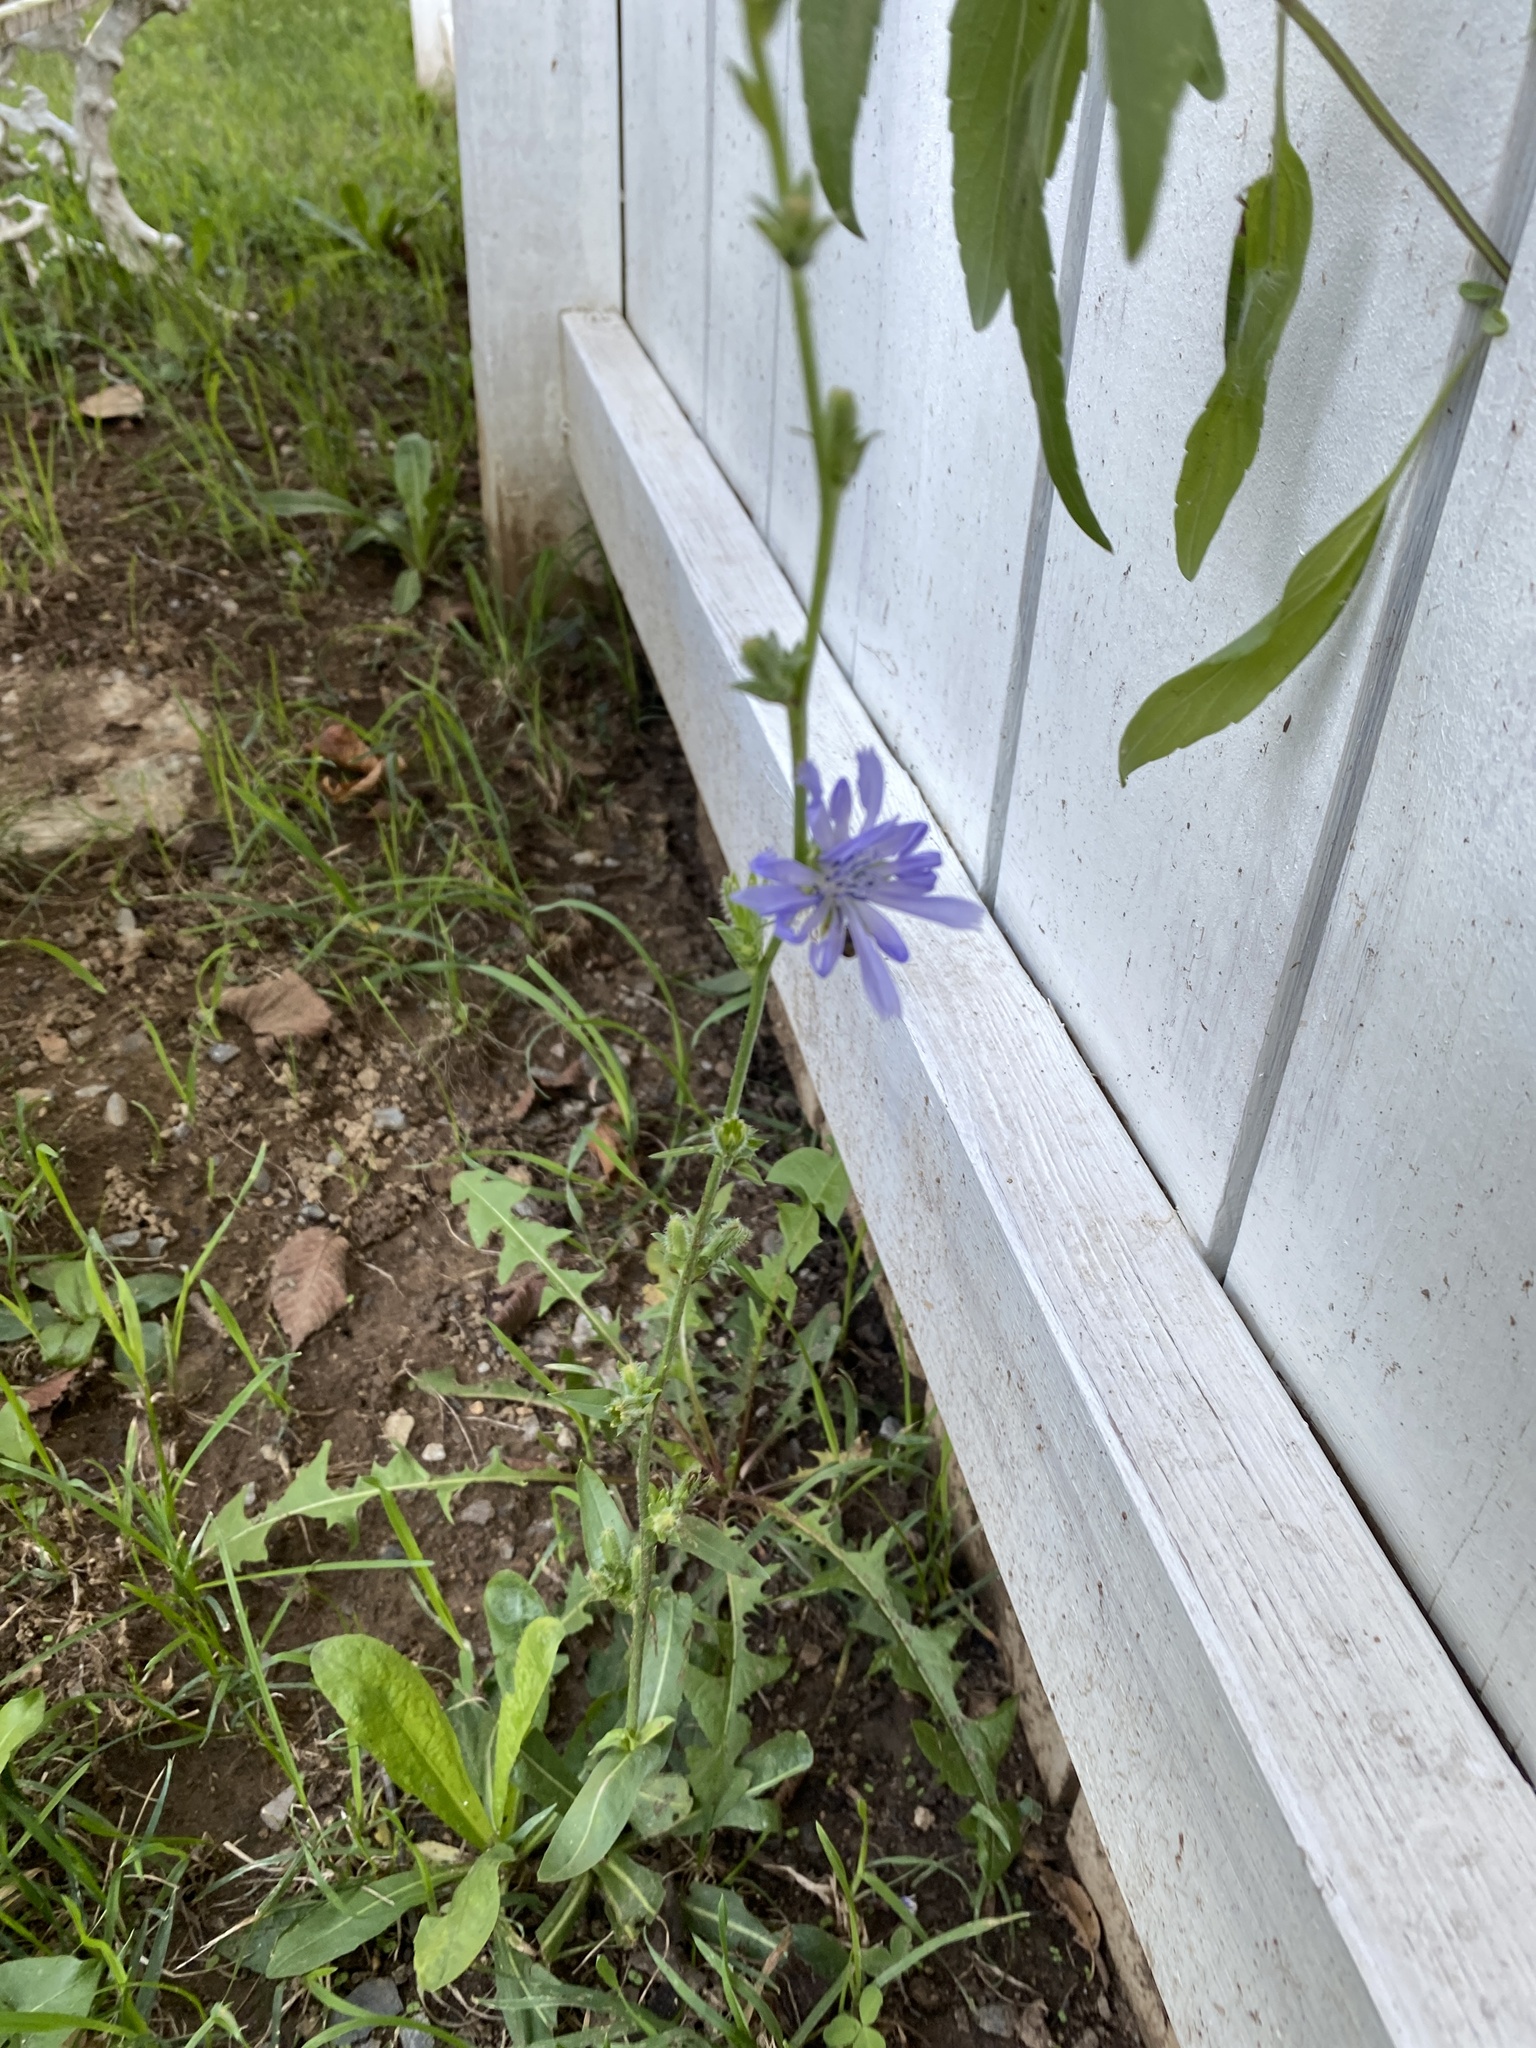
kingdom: Plantae
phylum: Tracheophyta
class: Magnoliopsida
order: Asterales
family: Asteraceae
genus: Cichorium
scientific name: Cichorium intybus
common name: Chicory
